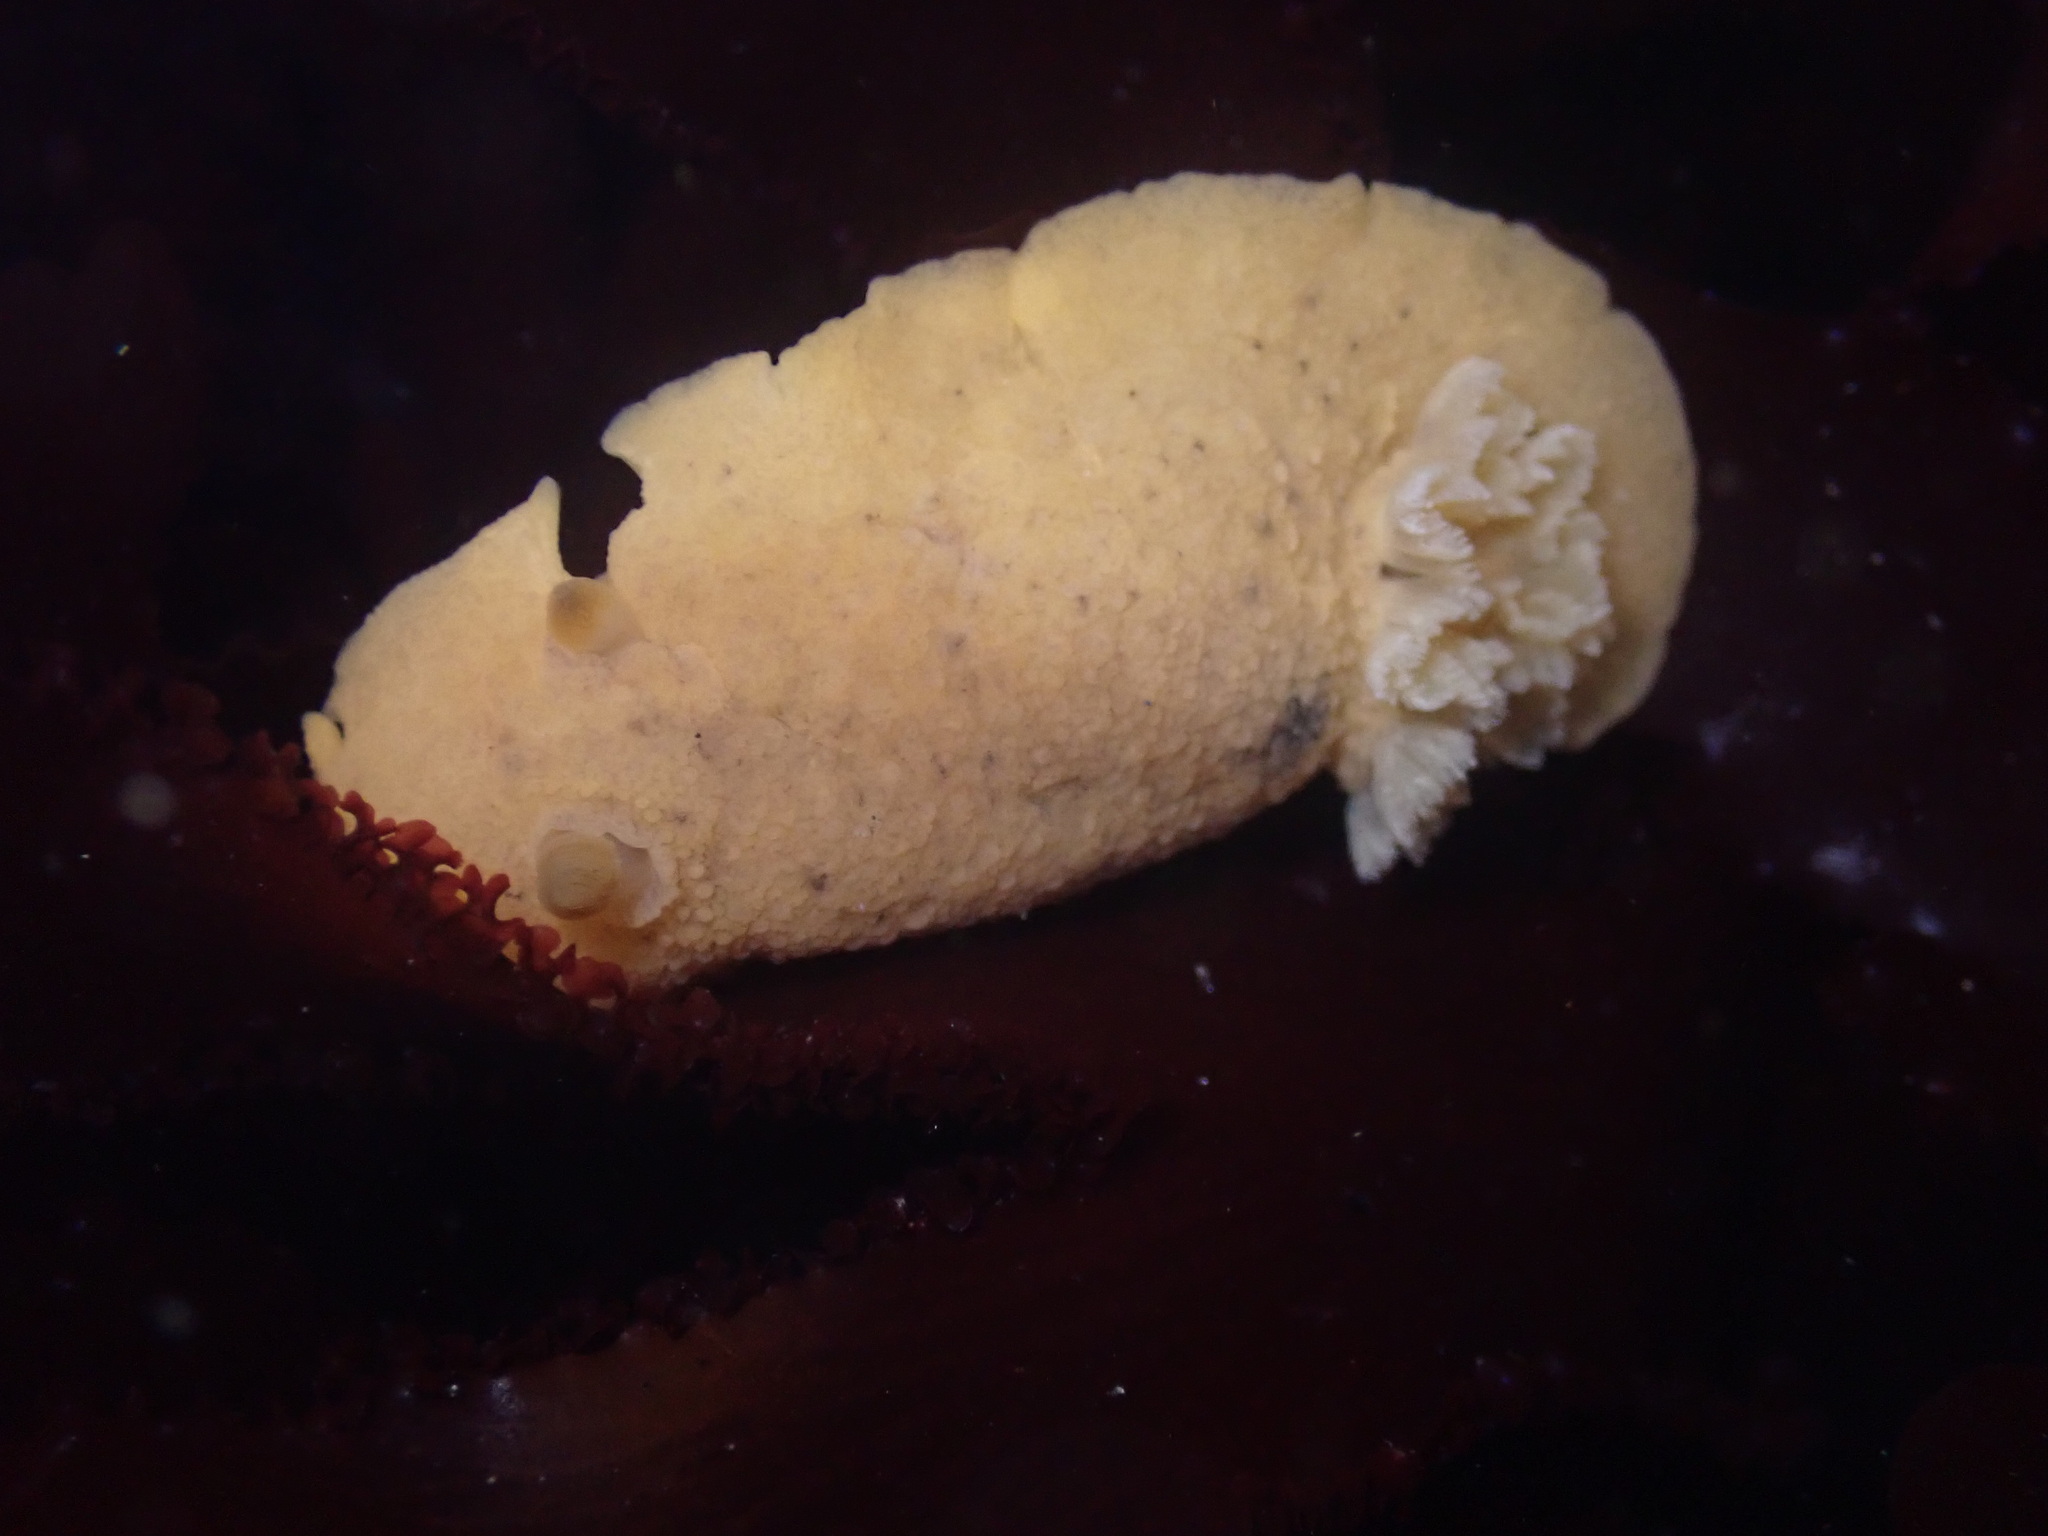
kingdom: Animalia
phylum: Mollusca
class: Gastropoda
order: Nudibranchia
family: Discodorididae
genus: Geitodoris
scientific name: Geitodoris heathi
